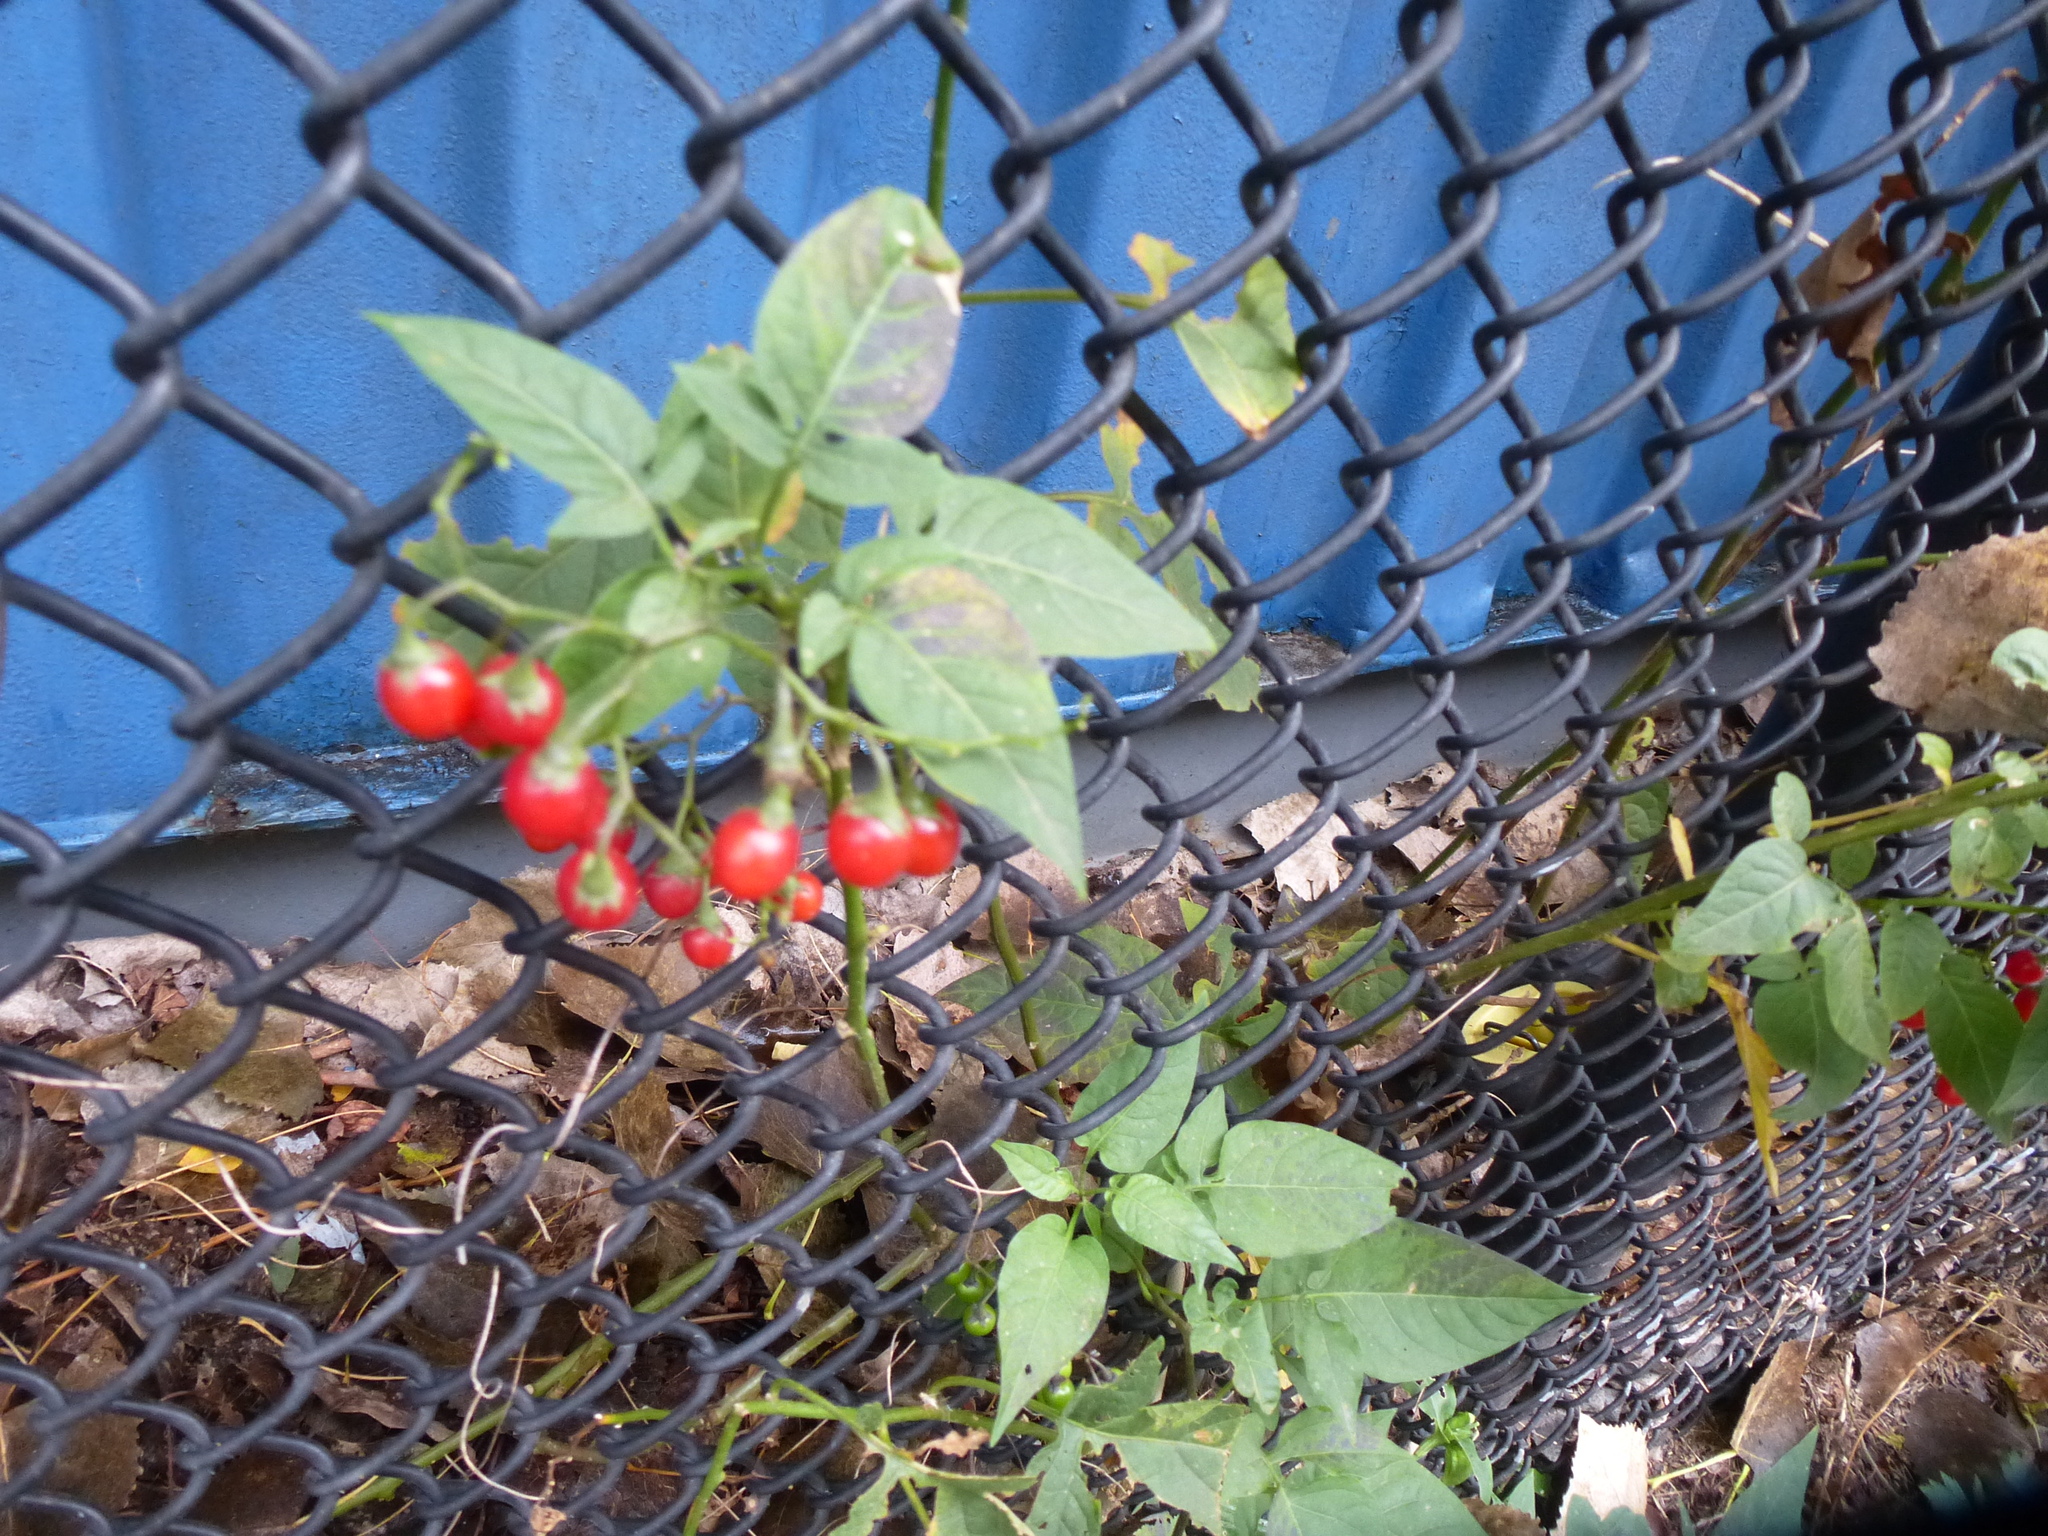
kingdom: Plantae
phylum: Tracheophyta
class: Magnoliopsida
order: Solanales
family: Solanaceae
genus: Solanum
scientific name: Solanum dulcamara
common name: Climbing nightshade
